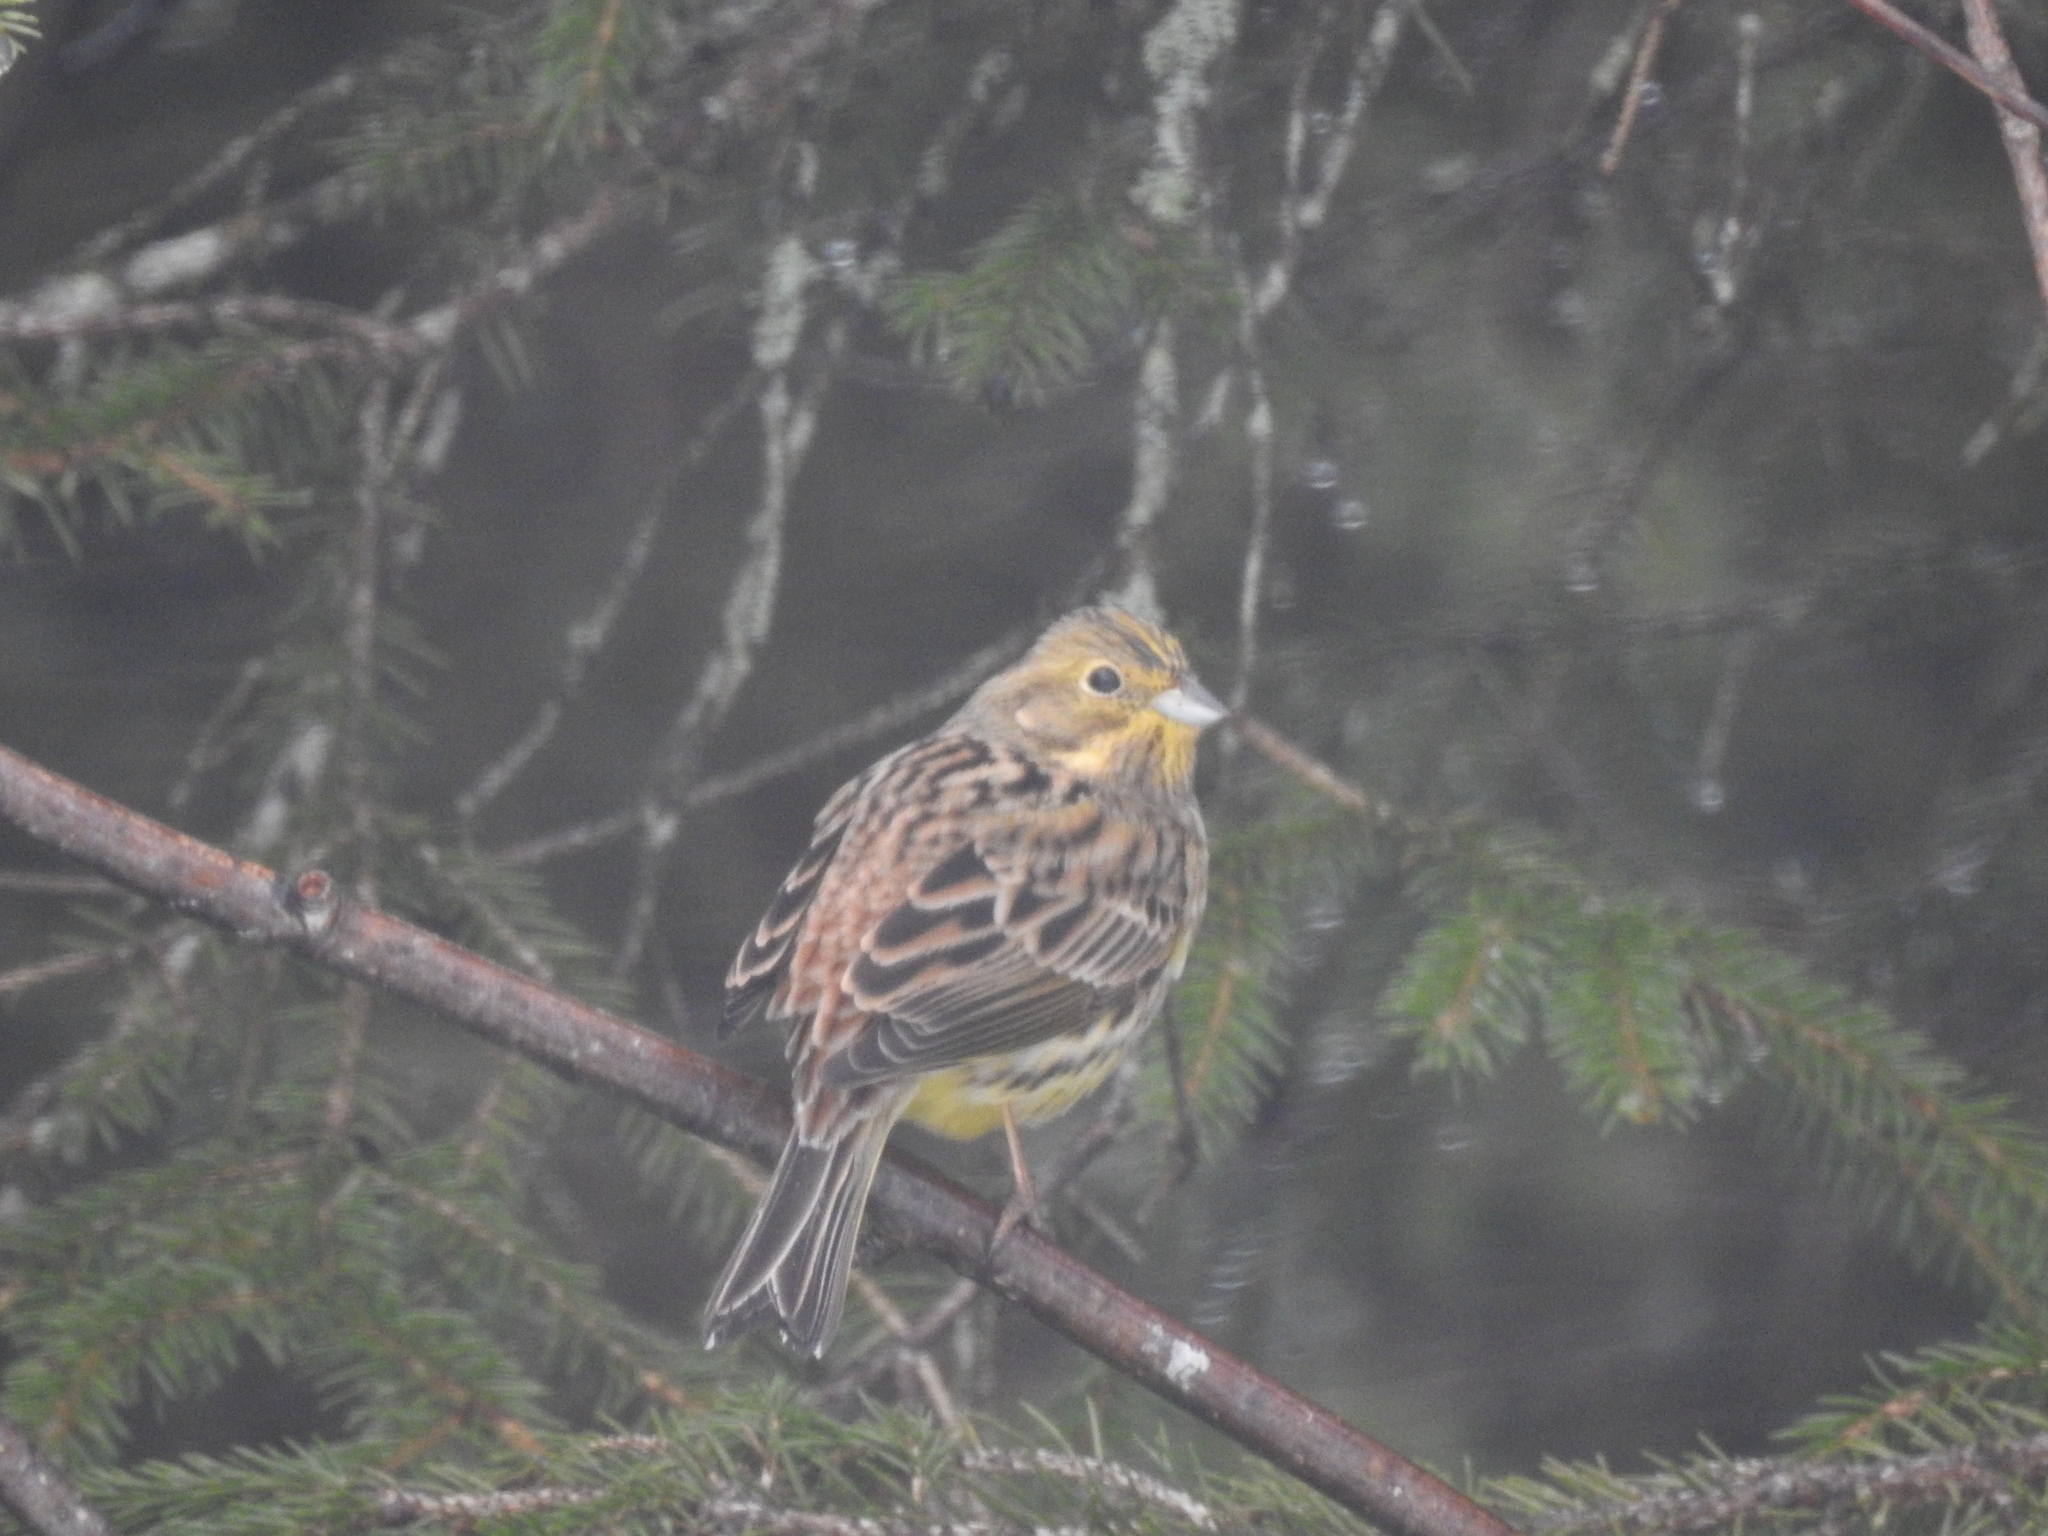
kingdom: Animalia
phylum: Chordata
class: Aves
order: Passeriformes
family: Emberizidae
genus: Emberiza
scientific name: Emberiza citrinella
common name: Yellowhammer
